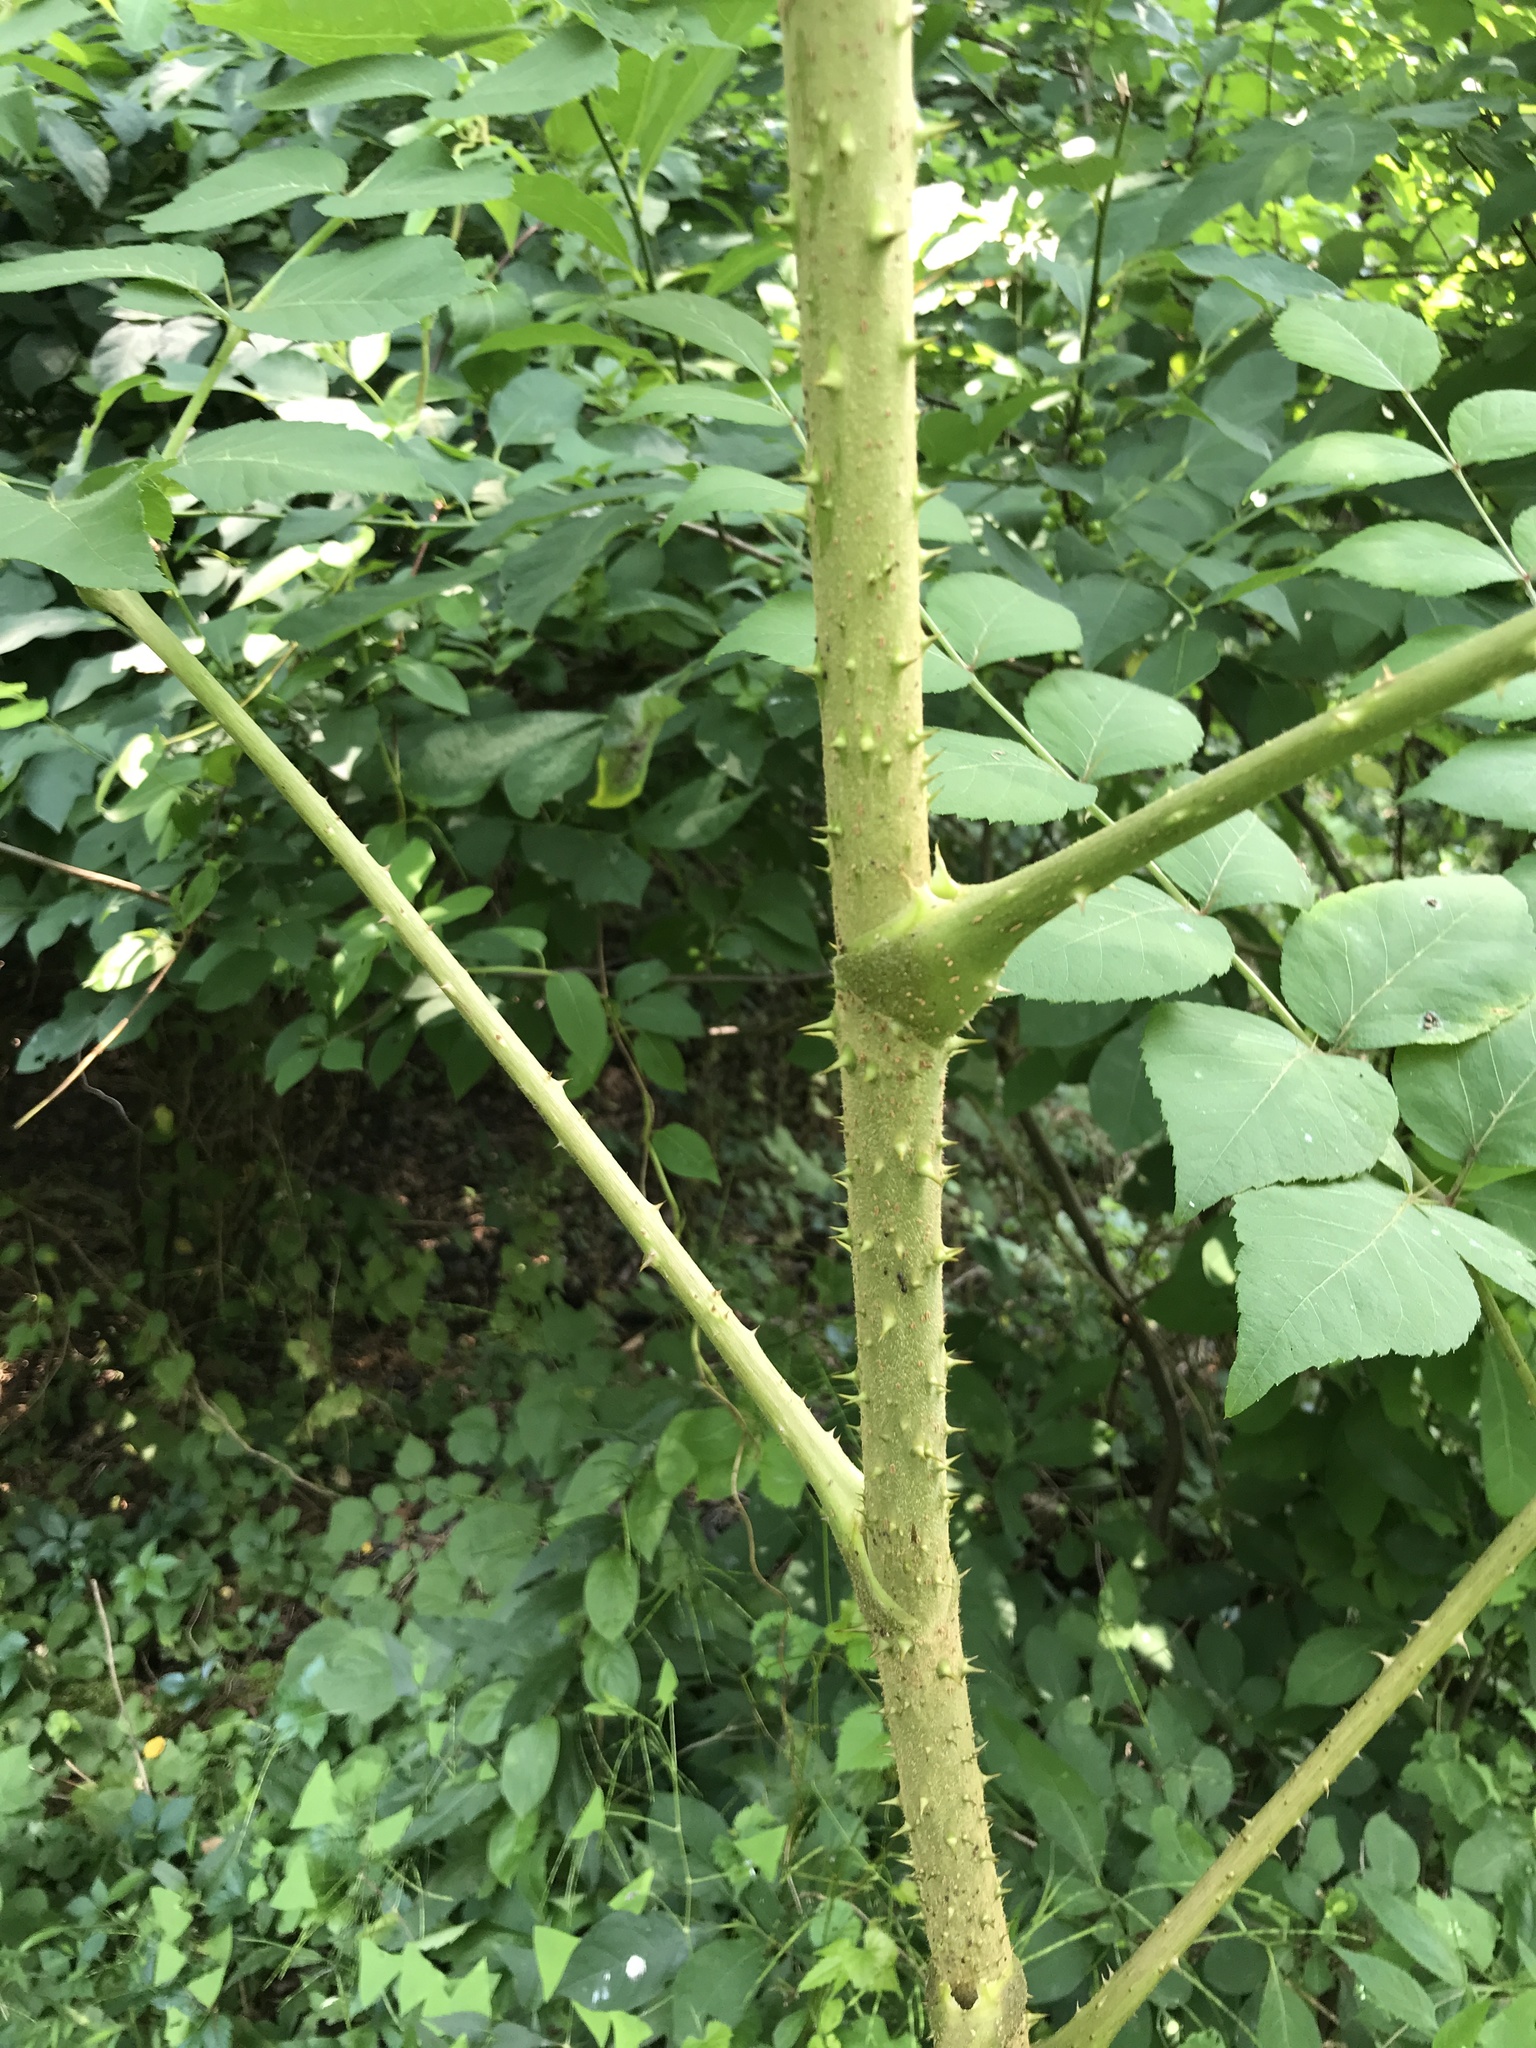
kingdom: Plantae
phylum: Tracheophyta
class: Magnoliopsida
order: Apiales
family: Araliaceae
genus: Aralia
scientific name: Aralia elata
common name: Japanese angelica-tree
